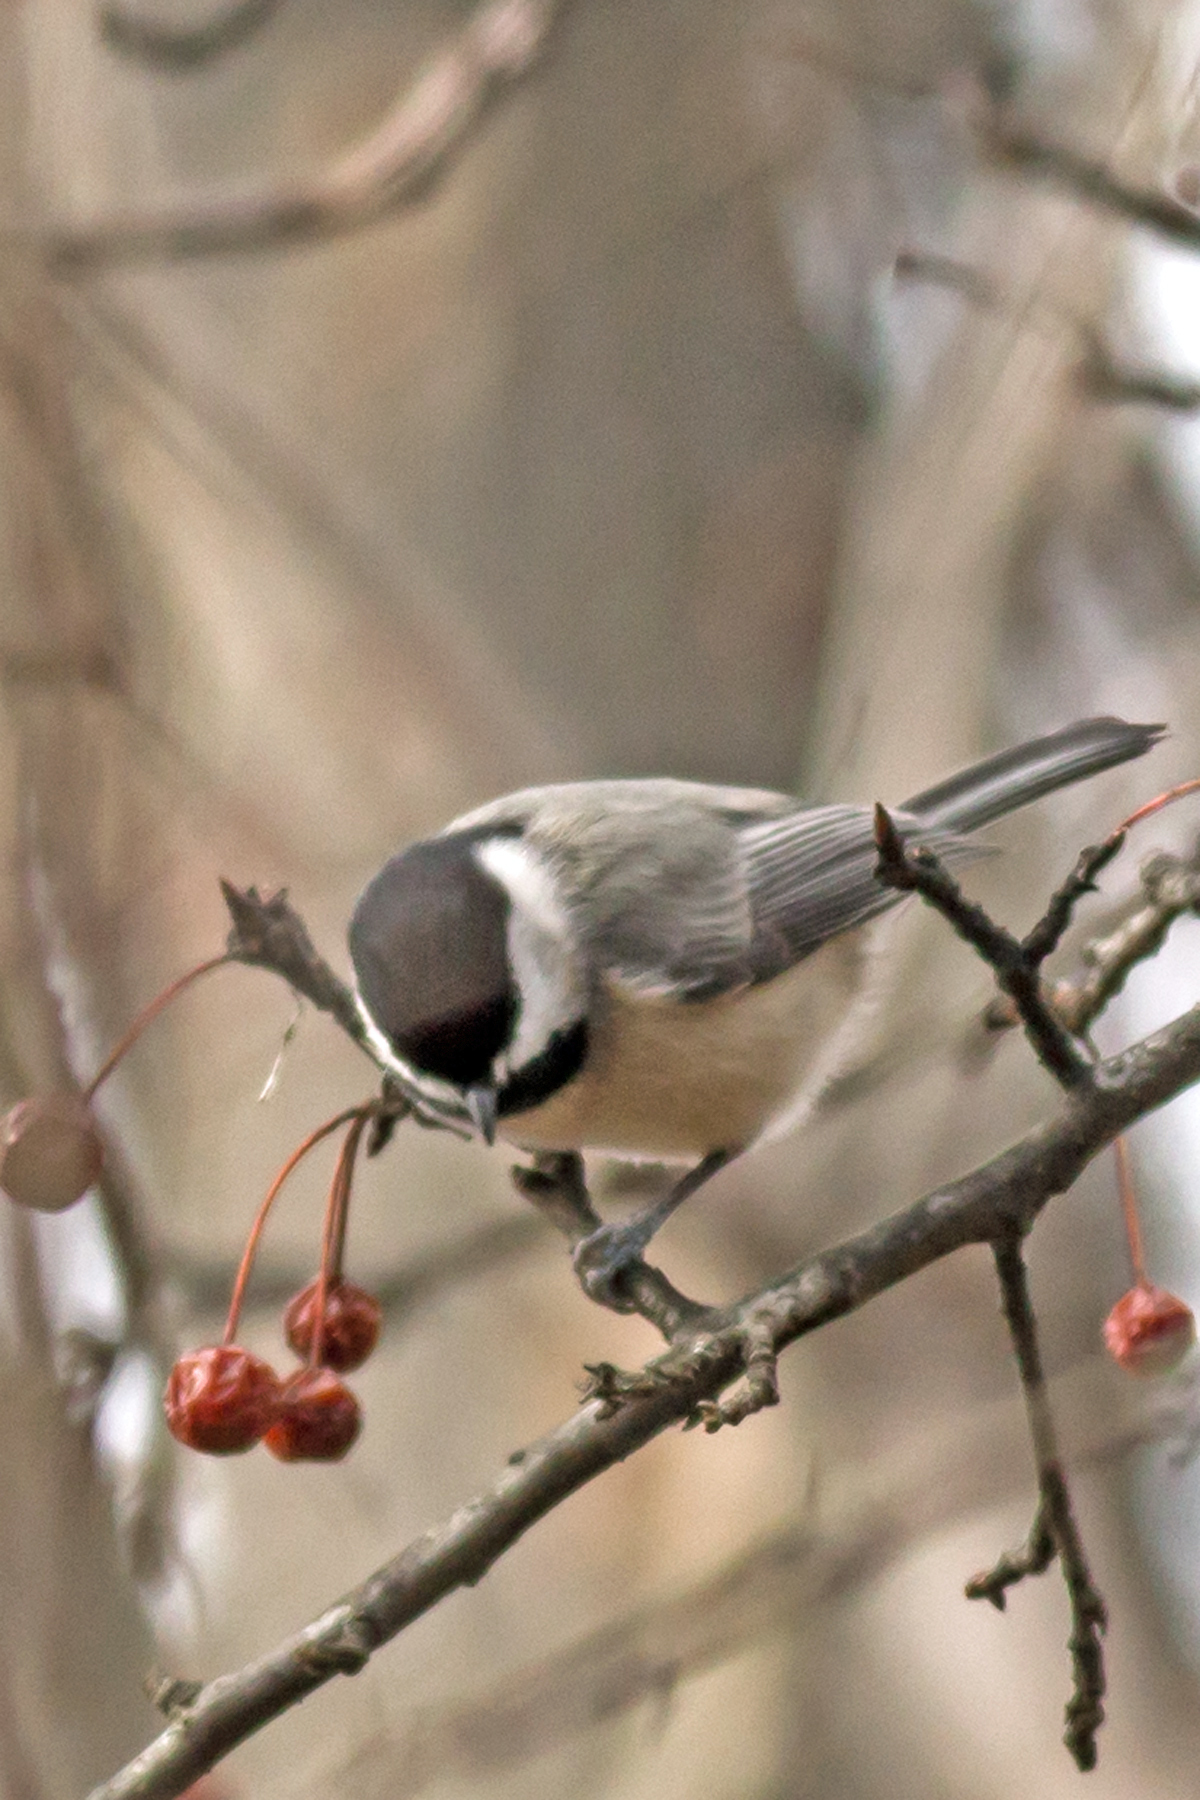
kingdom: Animalia
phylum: Chordata
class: Aves
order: Passeriformes
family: Paridae
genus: Poecile
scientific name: Poecile carolinensis
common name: Carolina chickadee
